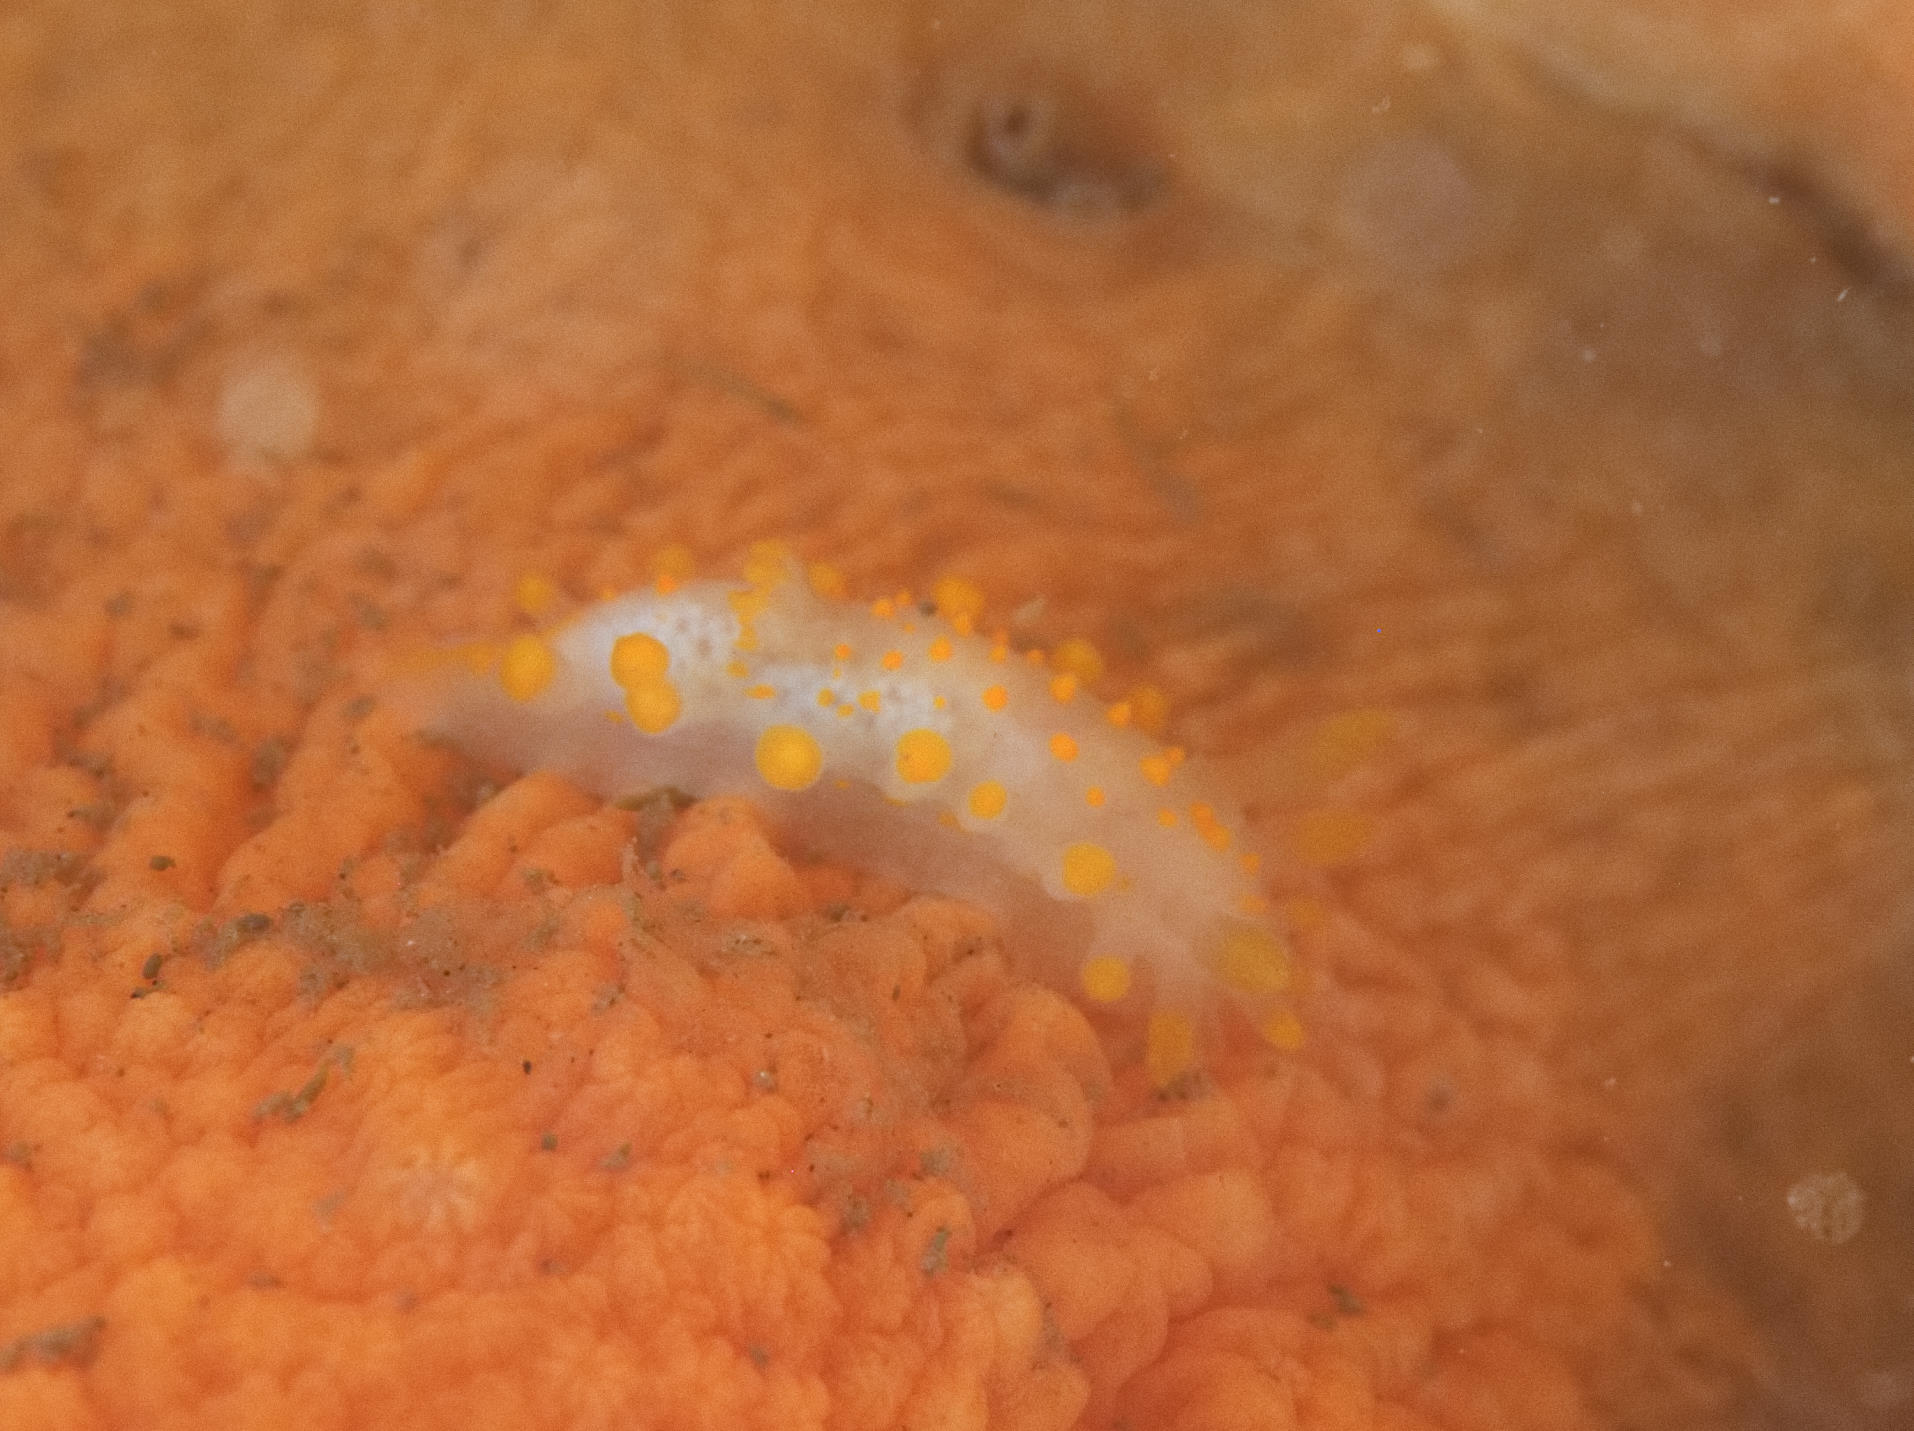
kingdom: Animalia
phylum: Mollusca
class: Gastropoda
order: Nudibranchia
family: Polyceridae
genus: Limacia
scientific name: Limacia clavigera
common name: Orange-clubbed sea slug
